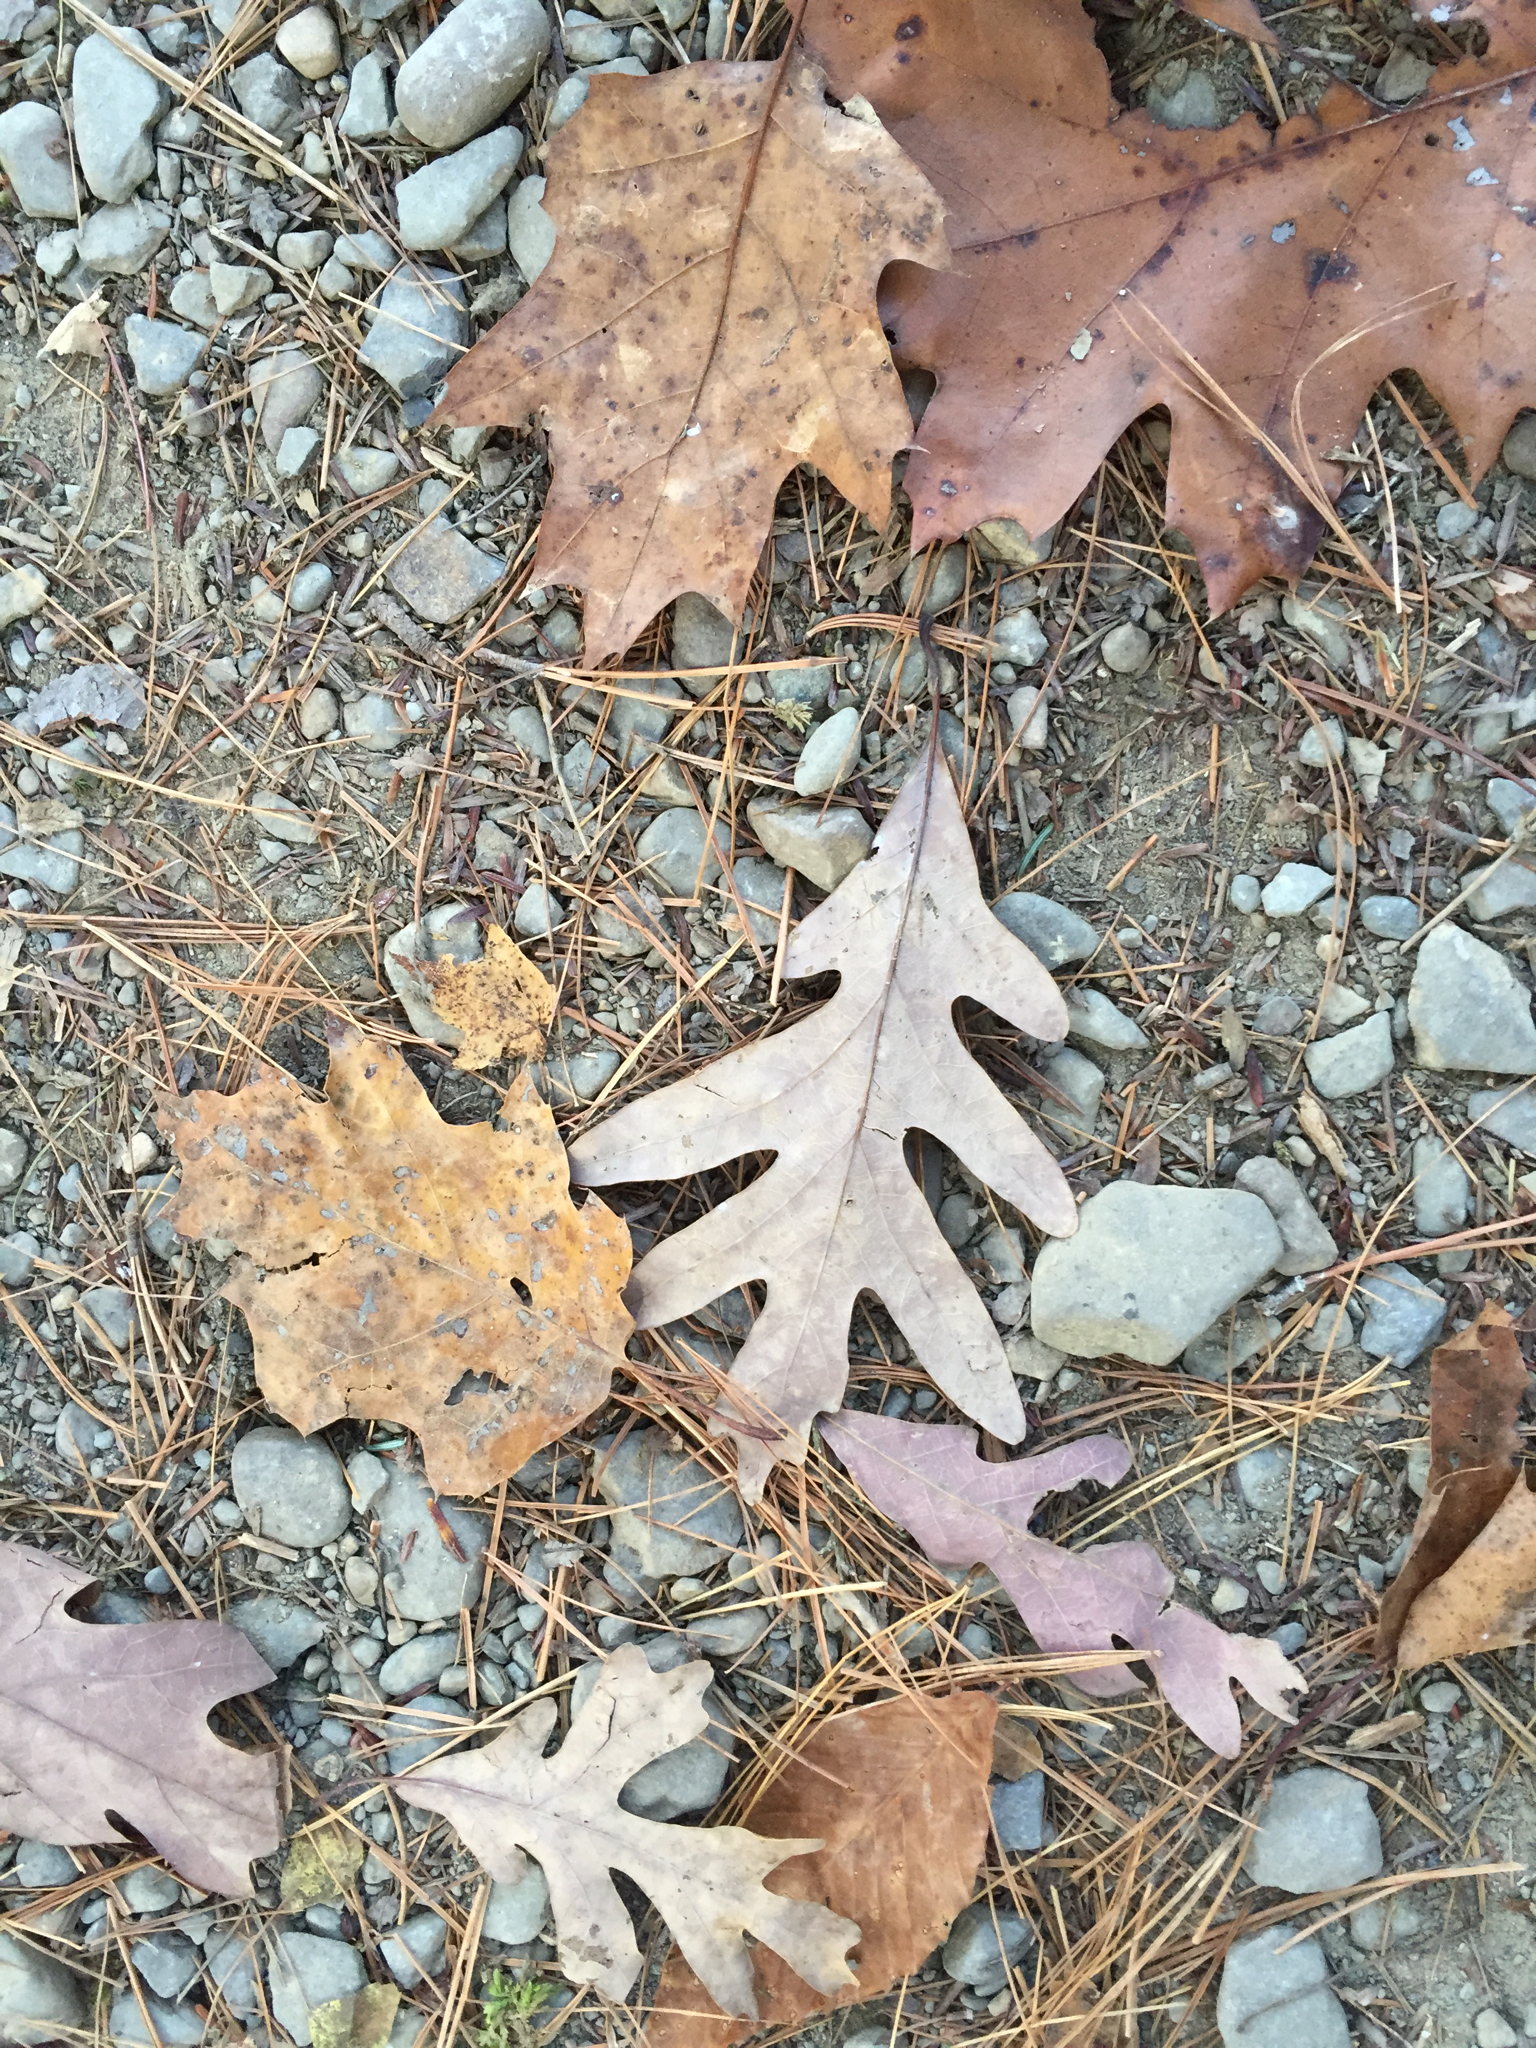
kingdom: Plantae
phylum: Tracheophyta
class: Magnoliopsida
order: Fagales
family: Fagaceae
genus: Quercus
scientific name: Quercus alba
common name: White oak
